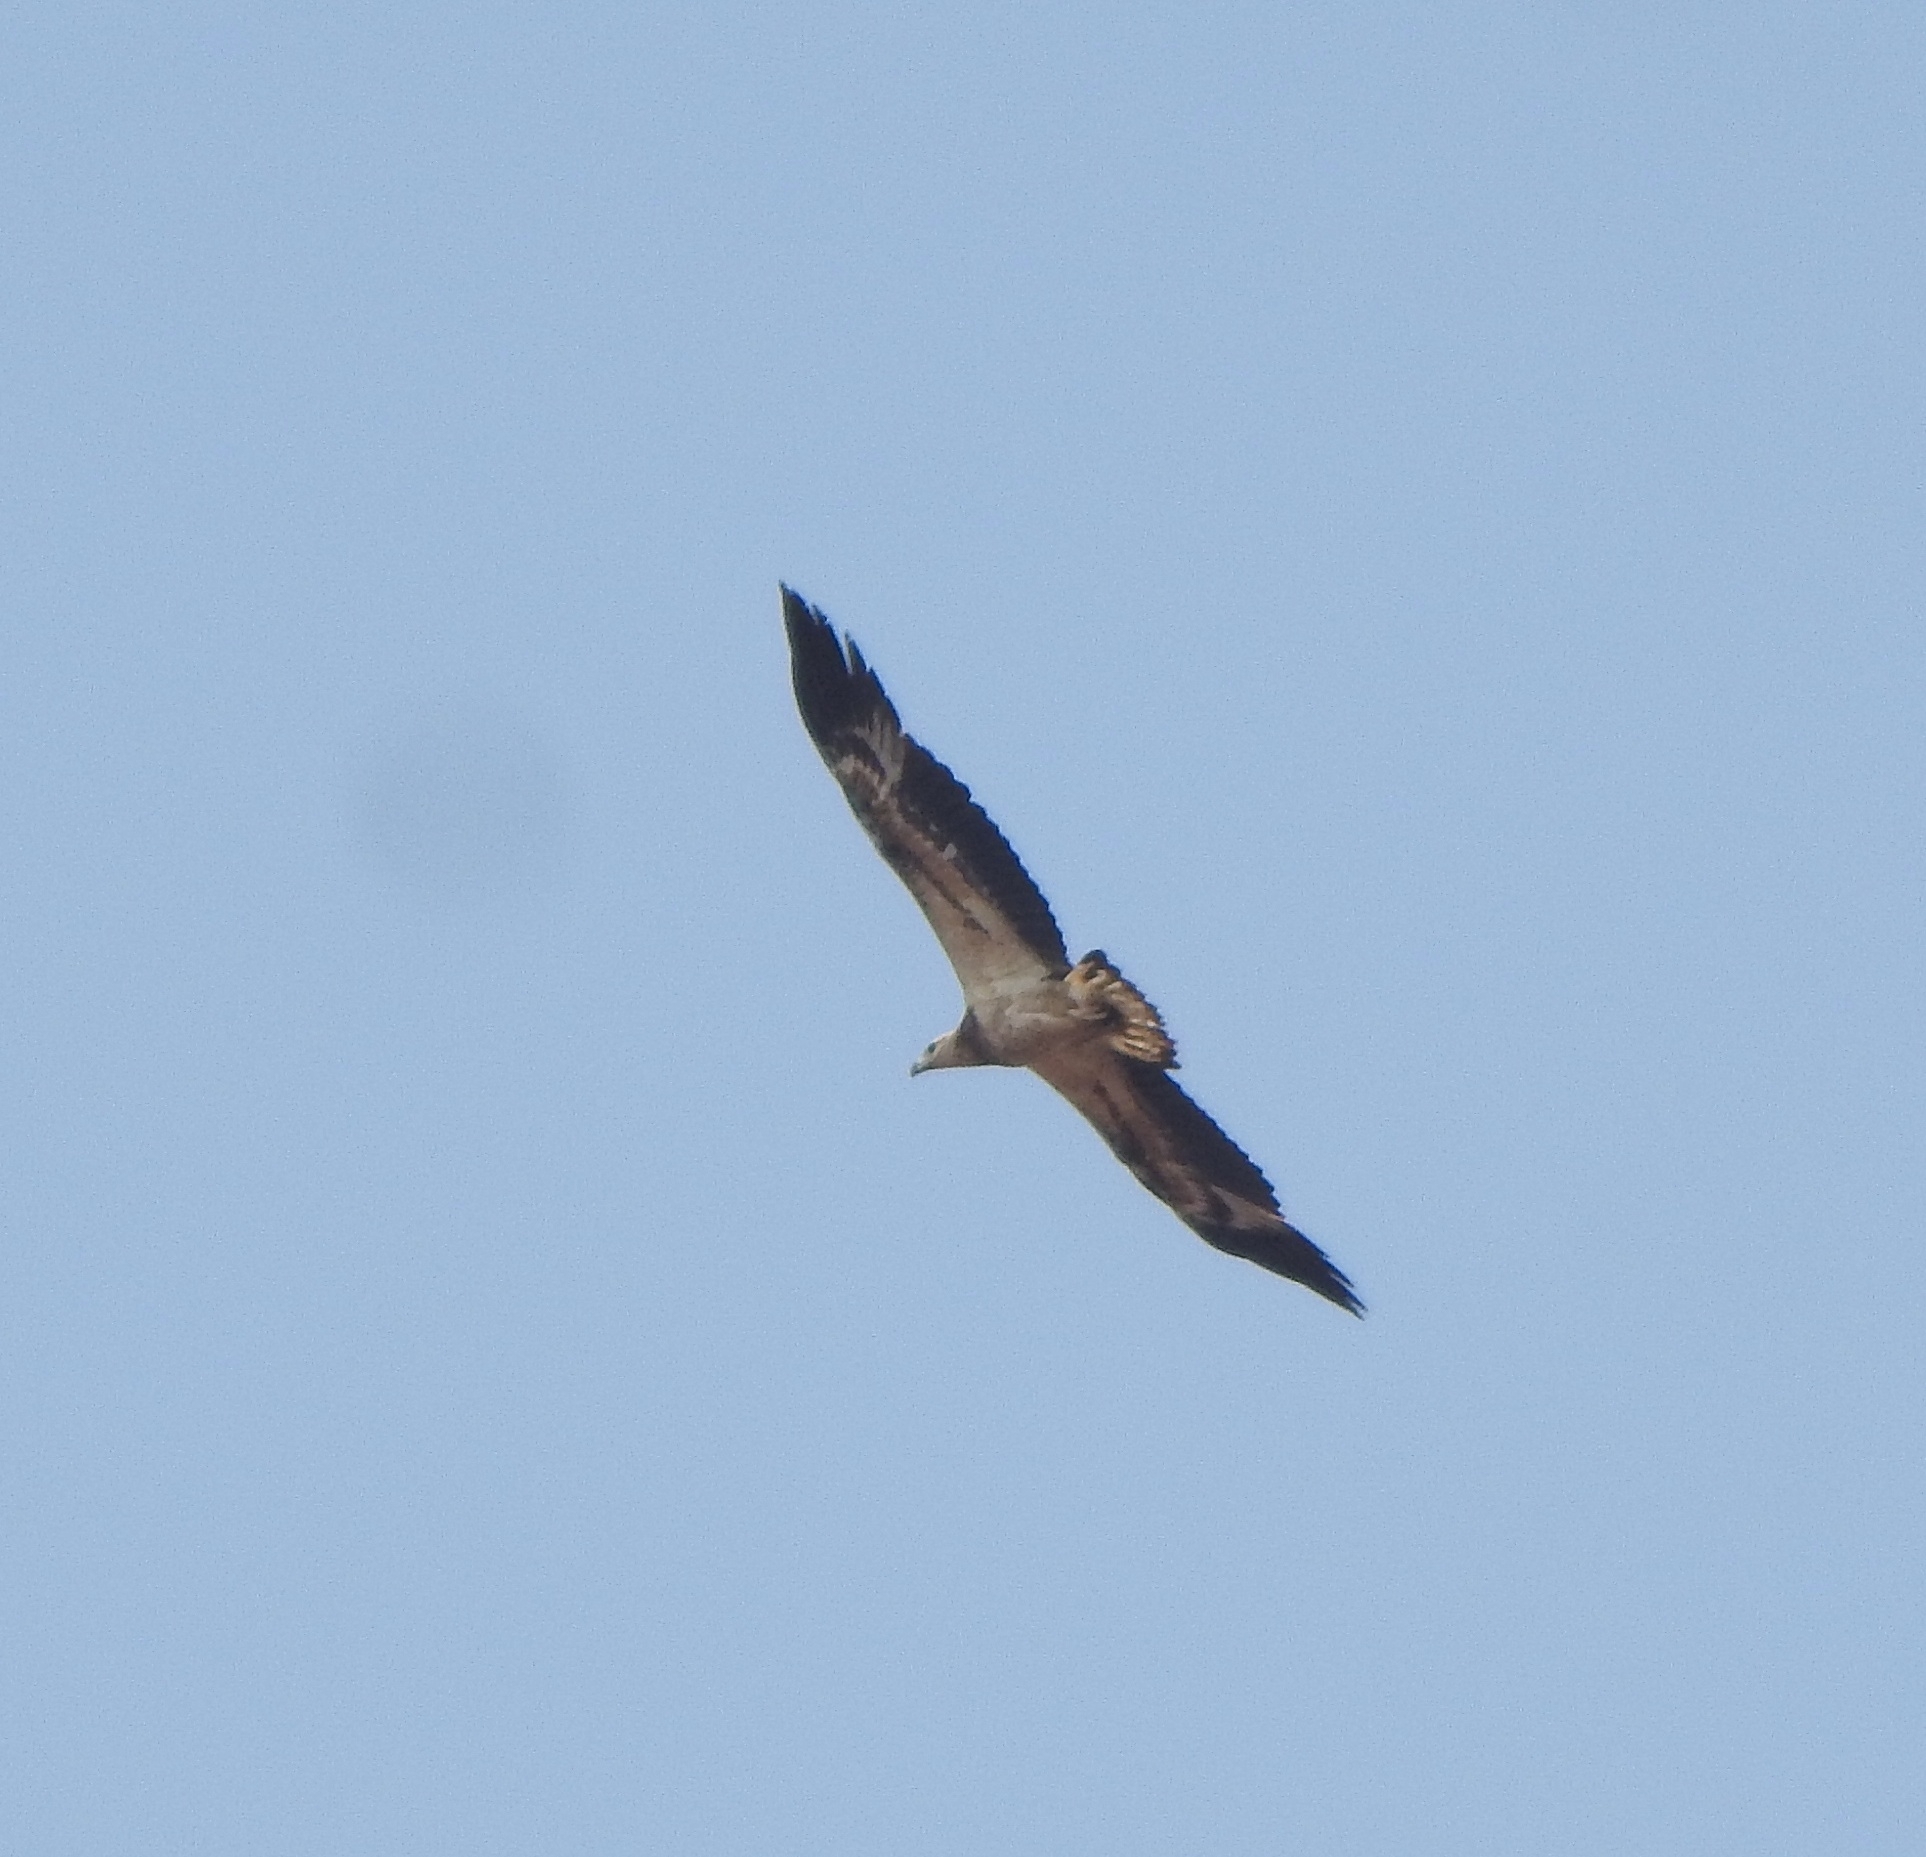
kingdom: Animalia
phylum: Chordata
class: Aves
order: Accipitriformes
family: Accipitridae
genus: Haliaeetus
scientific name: Haliaeetus leucogaster
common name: White-bellied sea eagle
